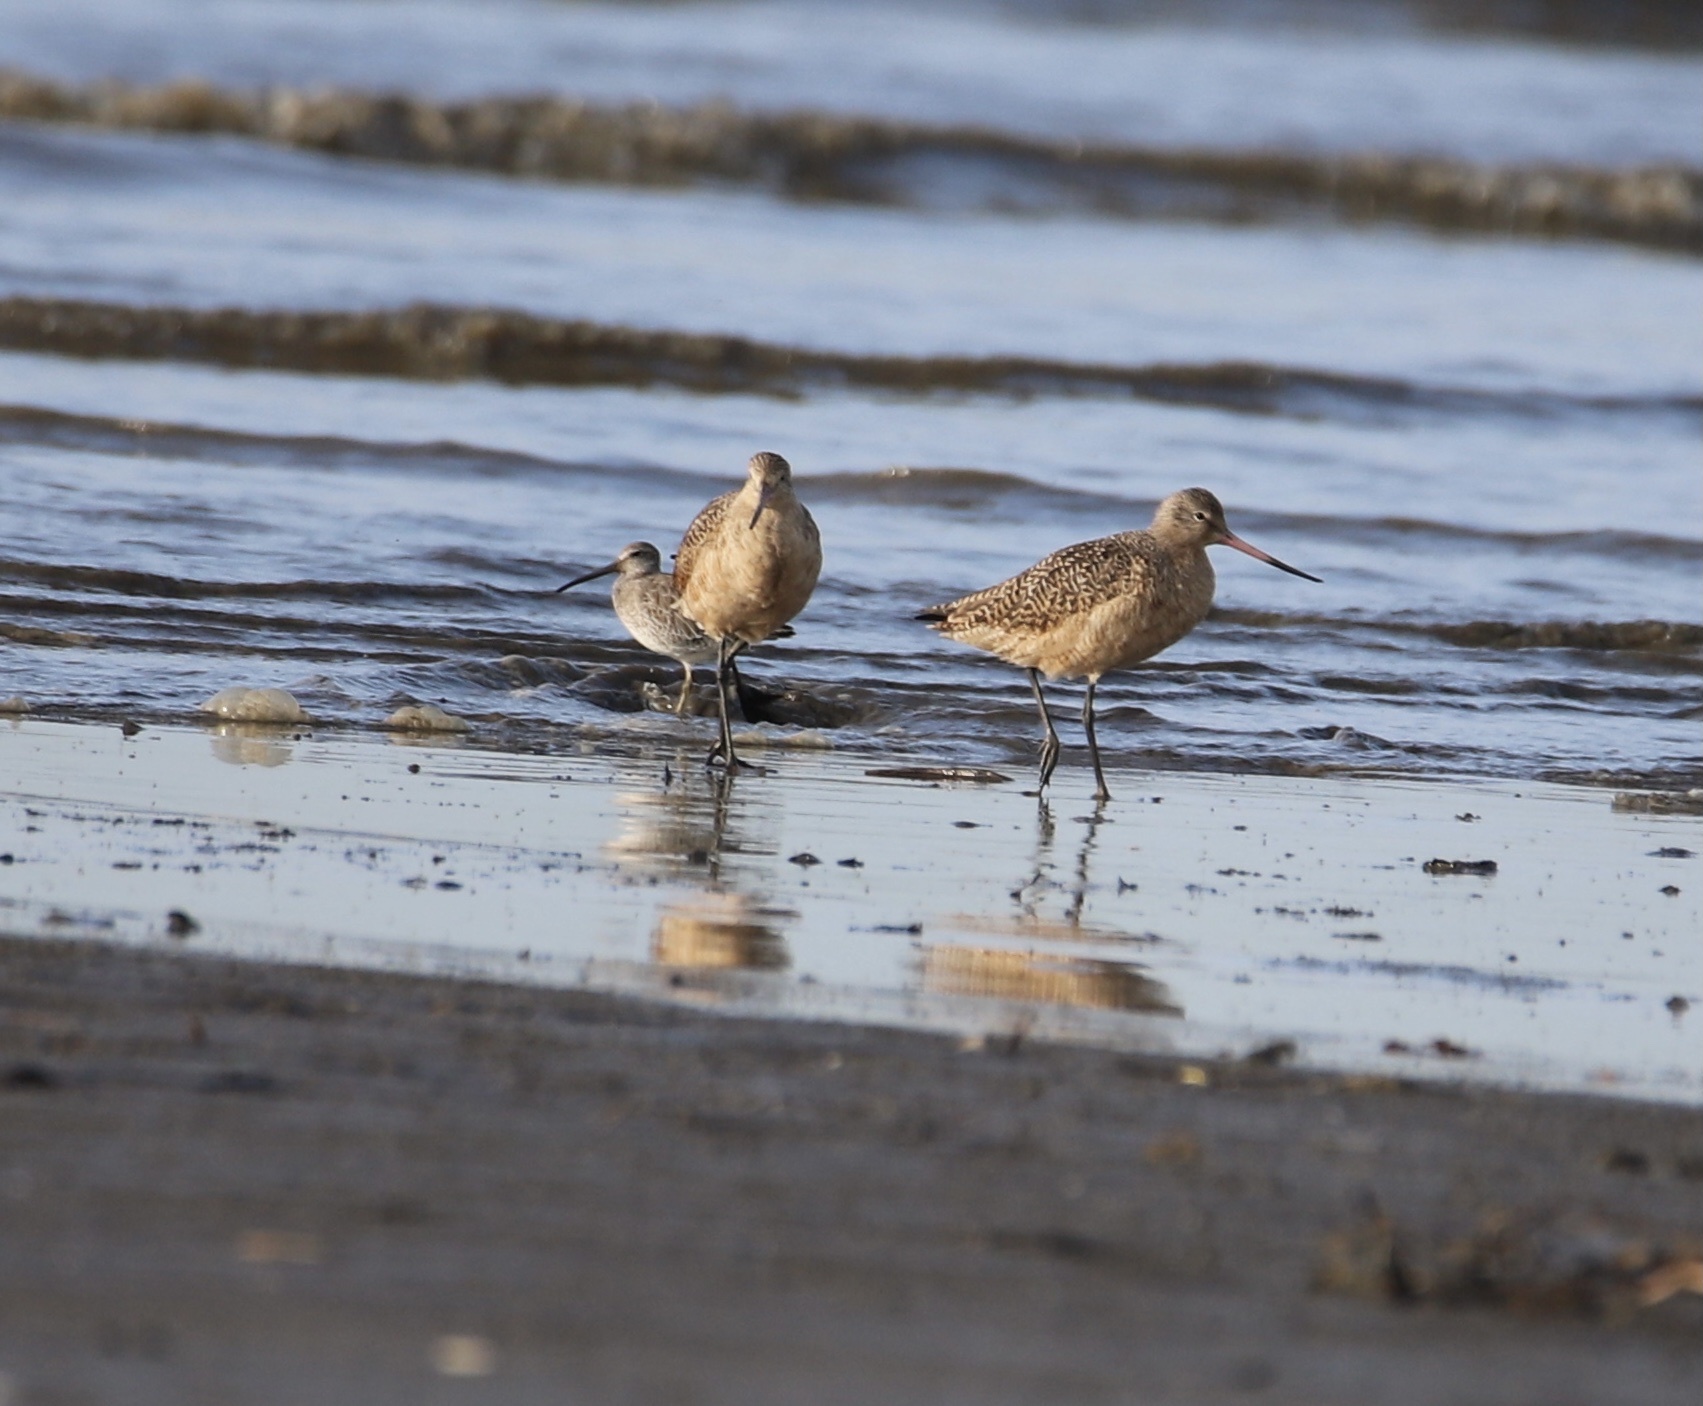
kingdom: Animalia
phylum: Chordata
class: Aves
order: Charadriiformes
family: Scolopacidae
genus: Limosa
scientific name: Limosa fedoa
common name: Marbled godwit
